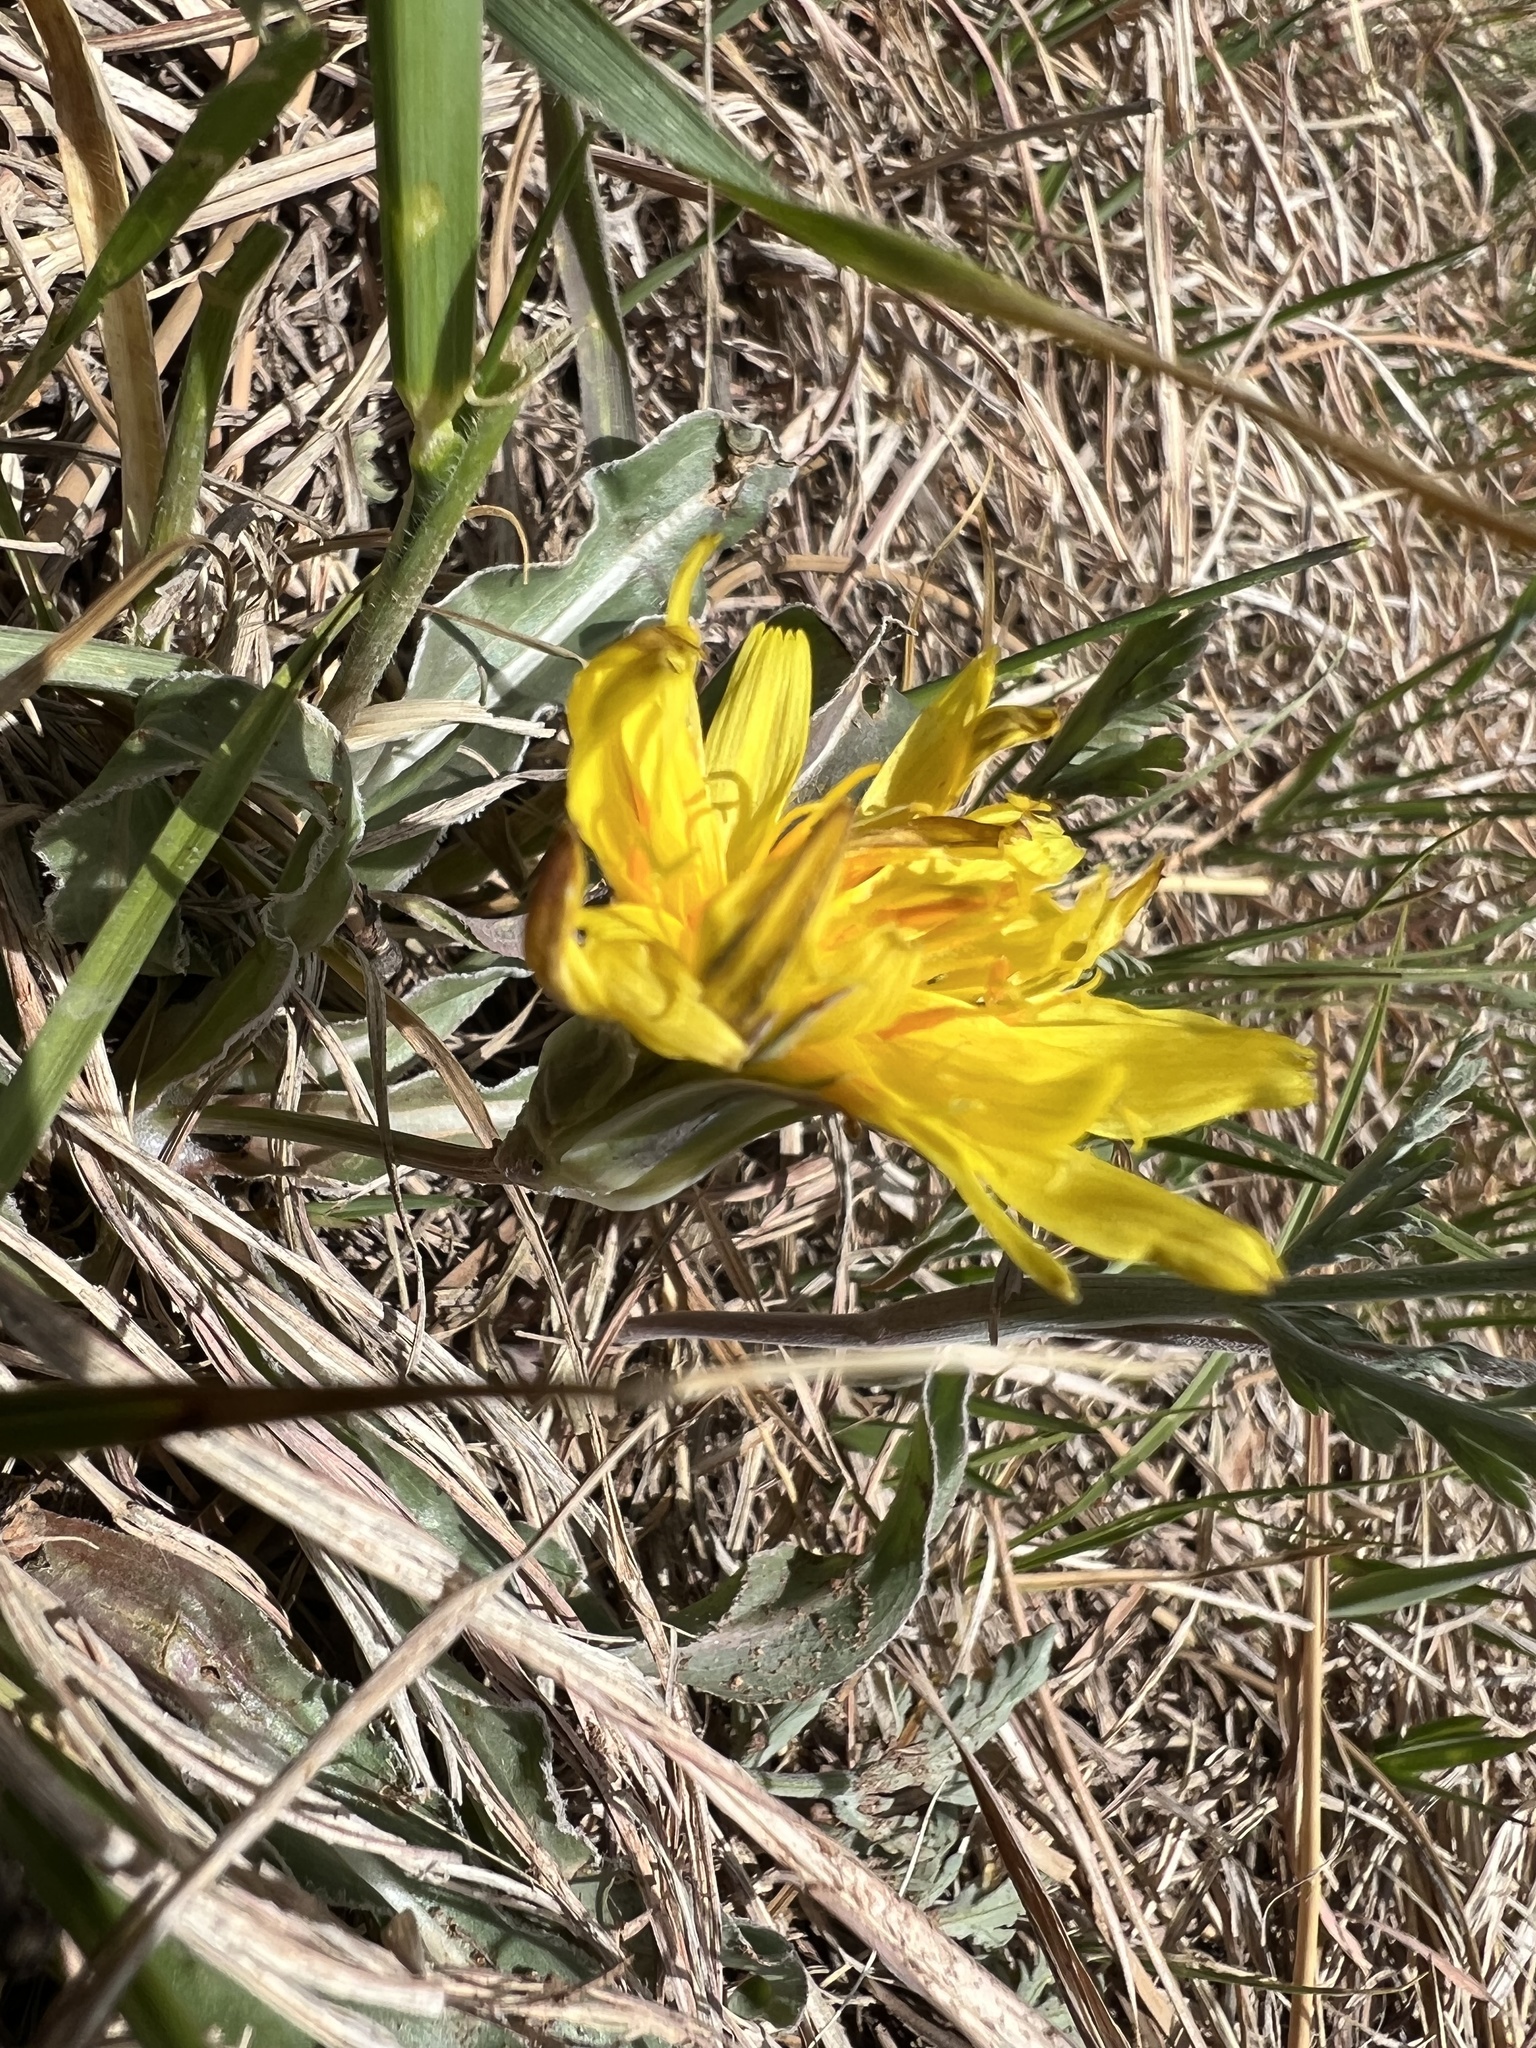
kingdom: Plantae
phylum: Tracheophyta
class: Magnoliopsida
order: Asterales
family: Asteraceae
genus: Microseris
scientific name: Microseris cuspidata
